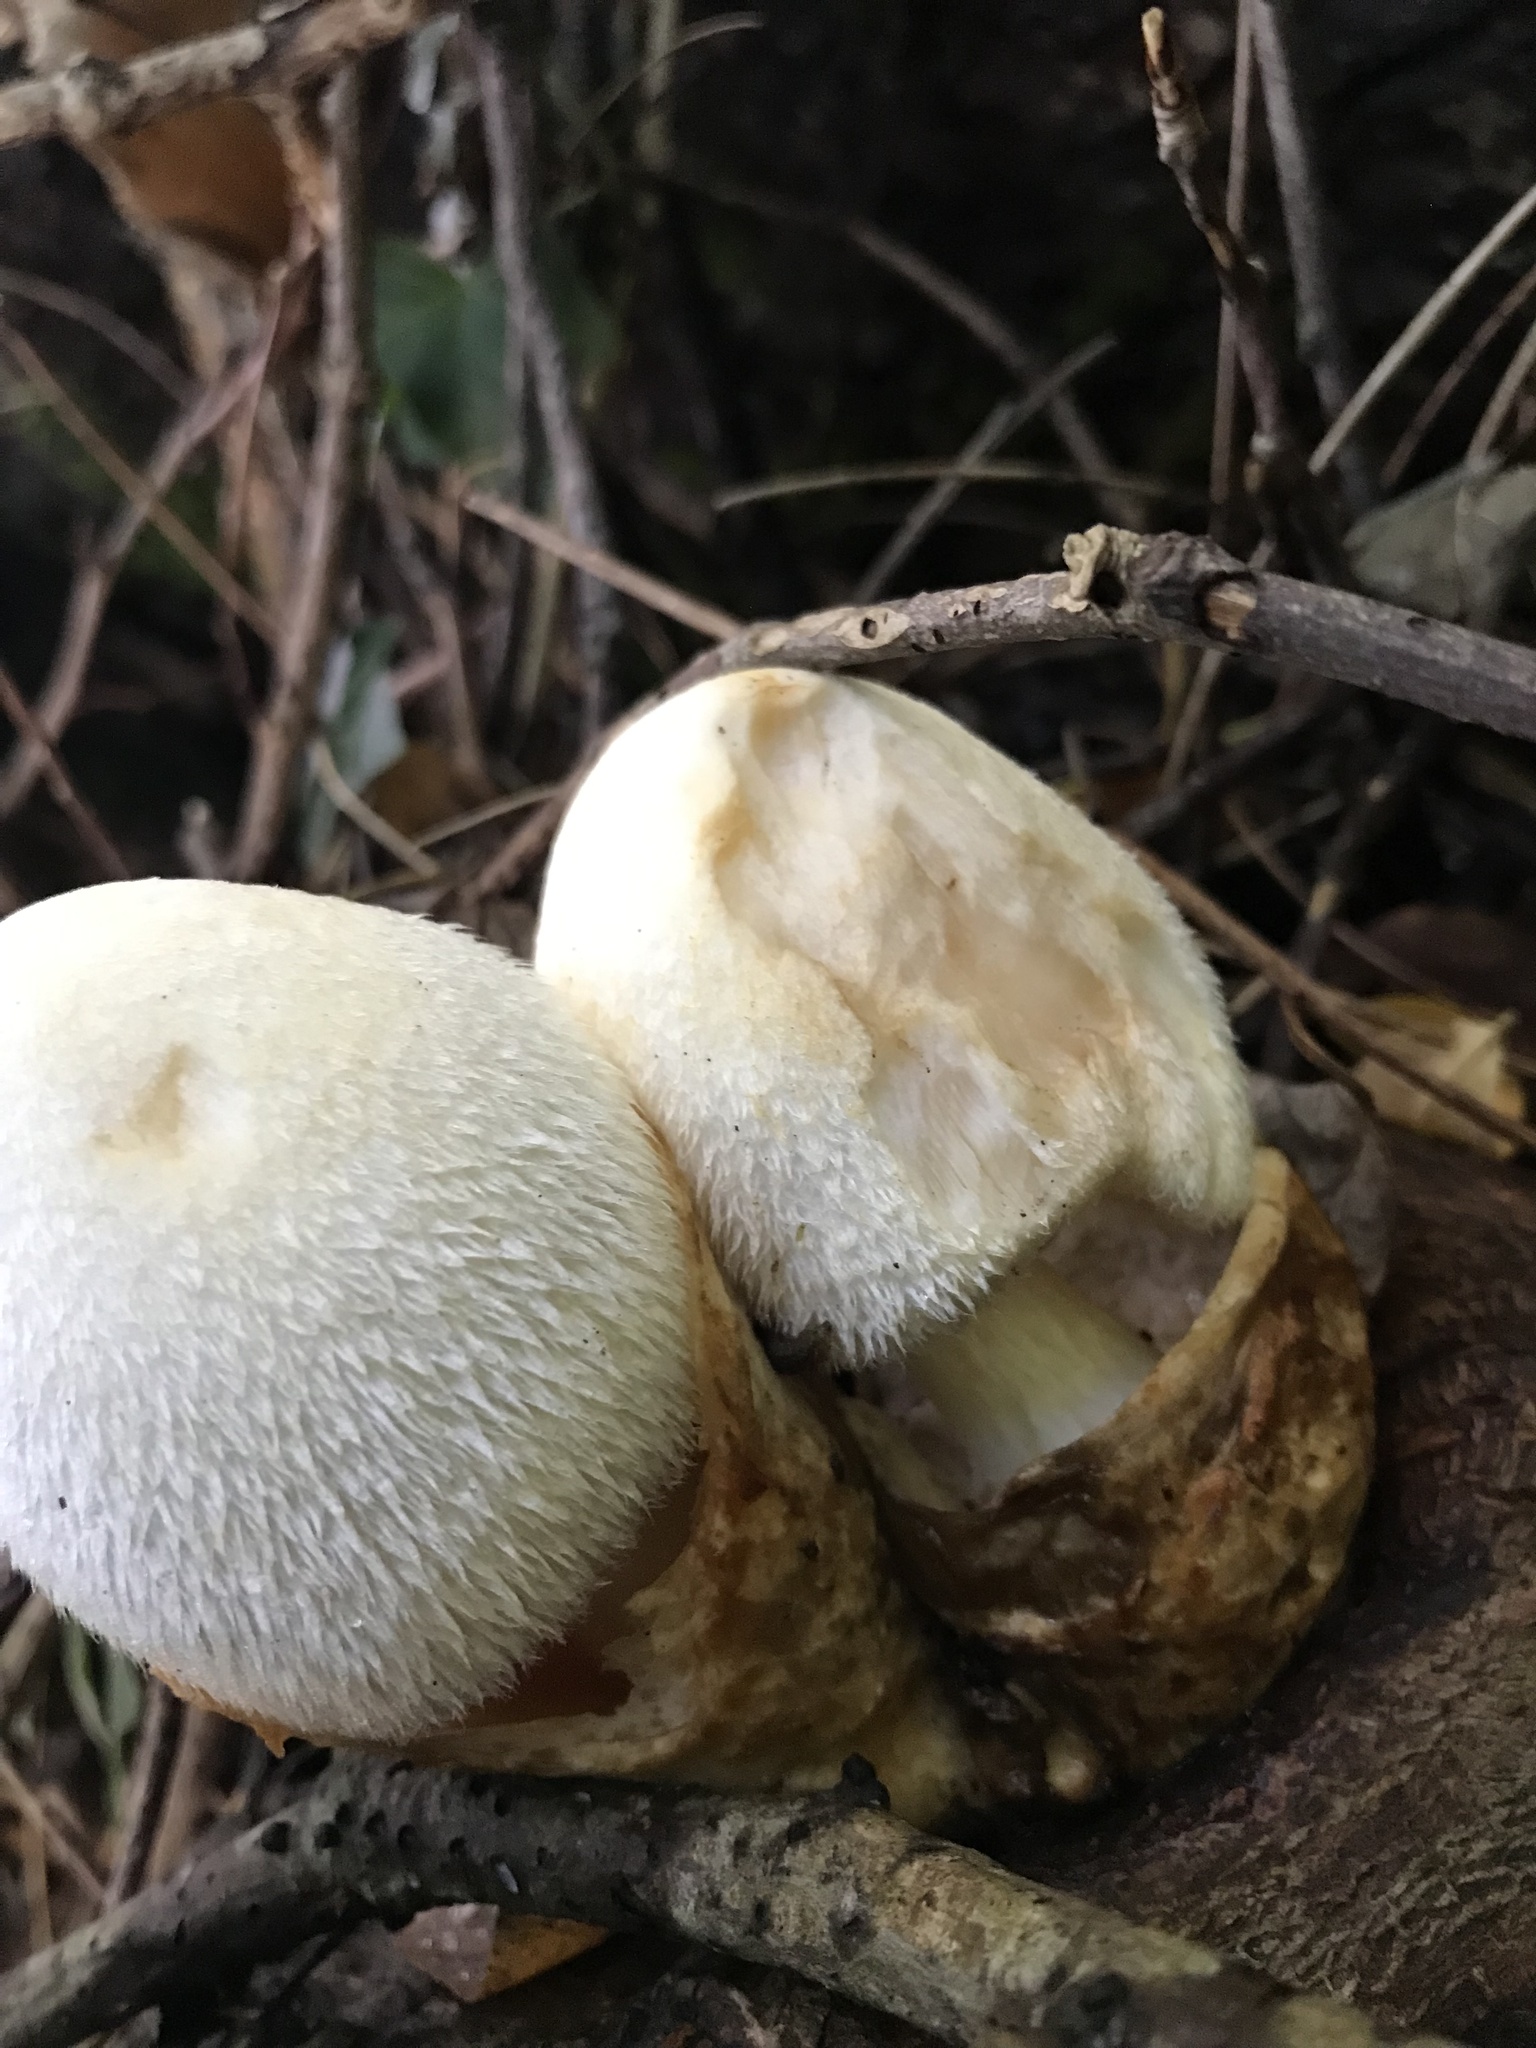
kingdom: Fungi
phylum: Basidiomycota
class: Agaricomycetes
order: Agaricales
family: Pluteaceae
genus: Volvariella
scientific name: Volvariella bombycina
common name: Silky rosegill
